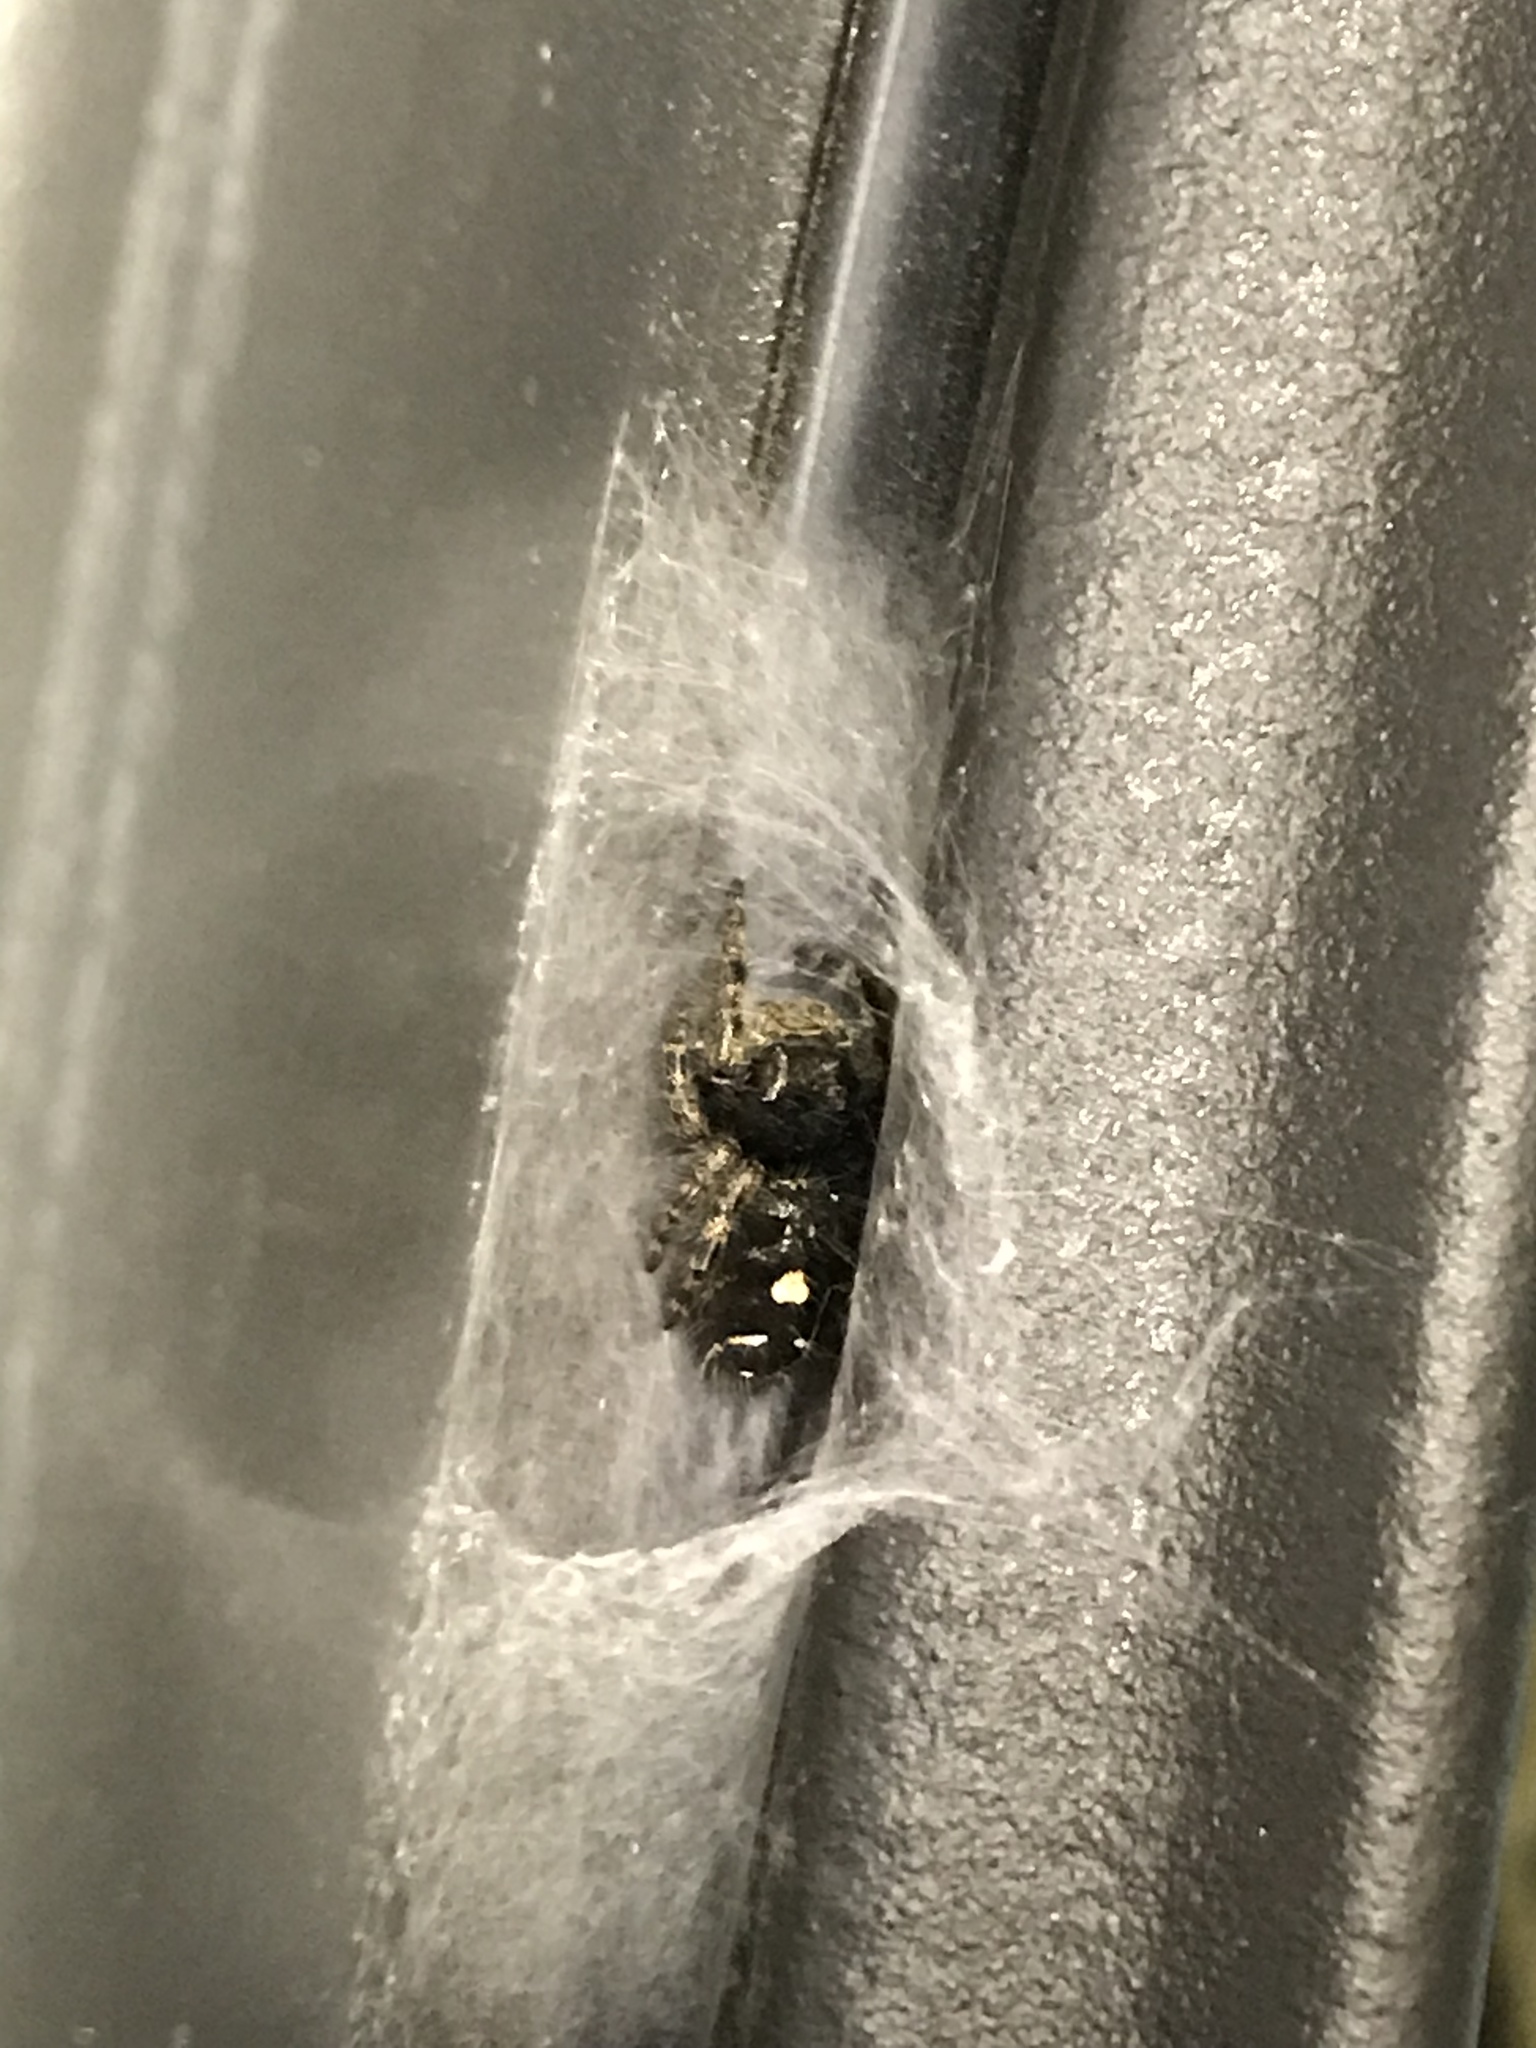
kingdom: Animalia
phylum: Arthropoda
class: Arachnida
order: Araneae
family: Salticidae
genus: Phidippus
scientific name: Phidippus audax
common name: Bold jumper
